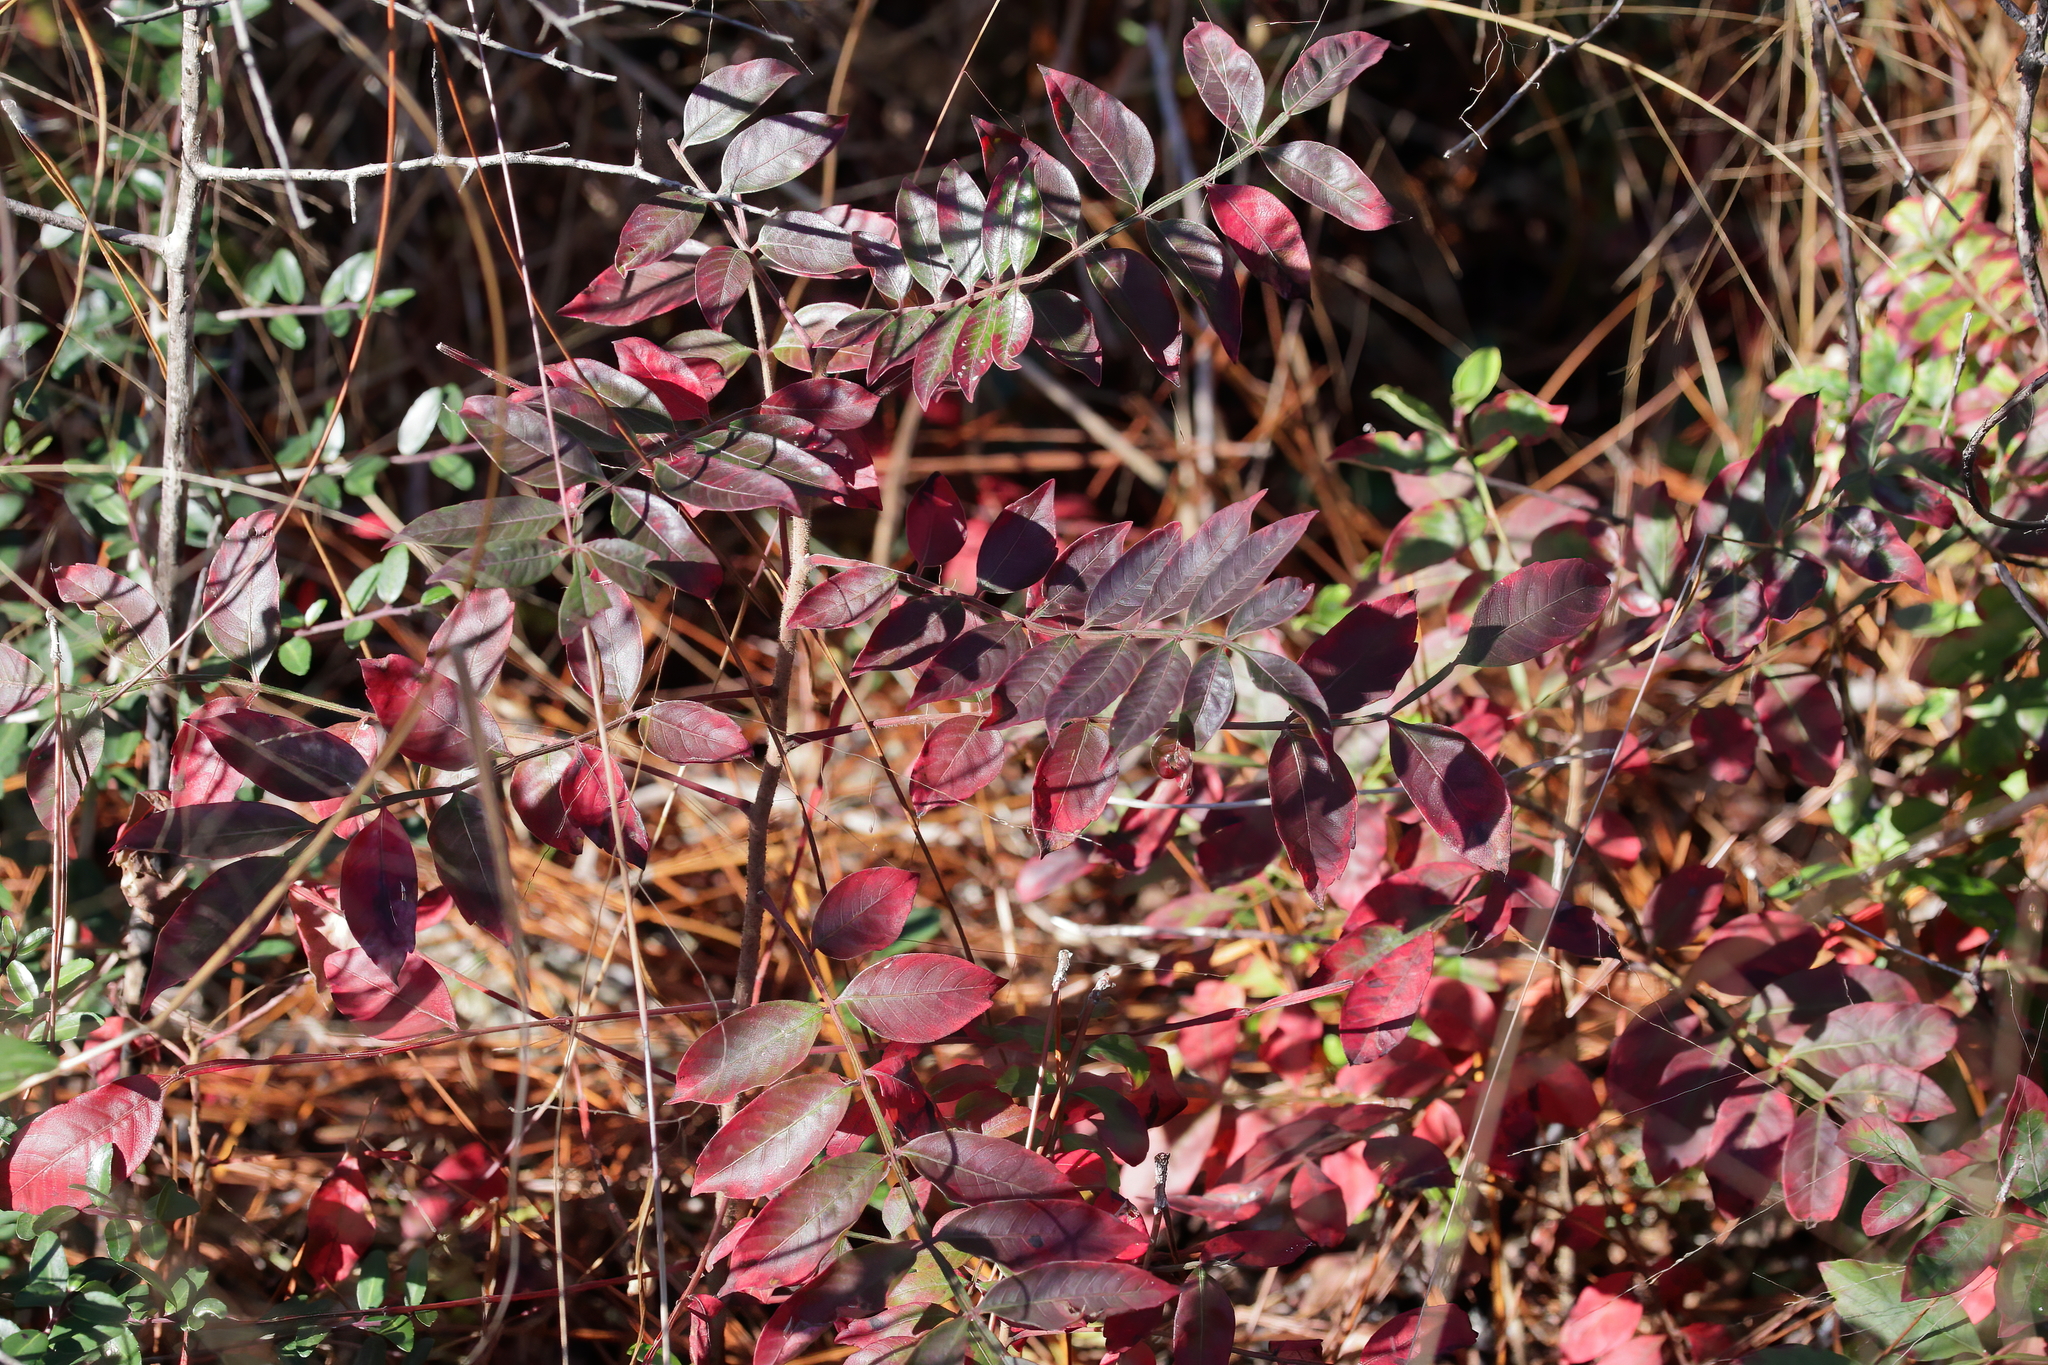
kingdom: Plantae
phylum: Tracheophyta
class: Magnoliopsida
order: Sapindales
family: Anacardiaceae
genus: Rhus
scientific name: Rhus copallina
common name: Shining sumac
